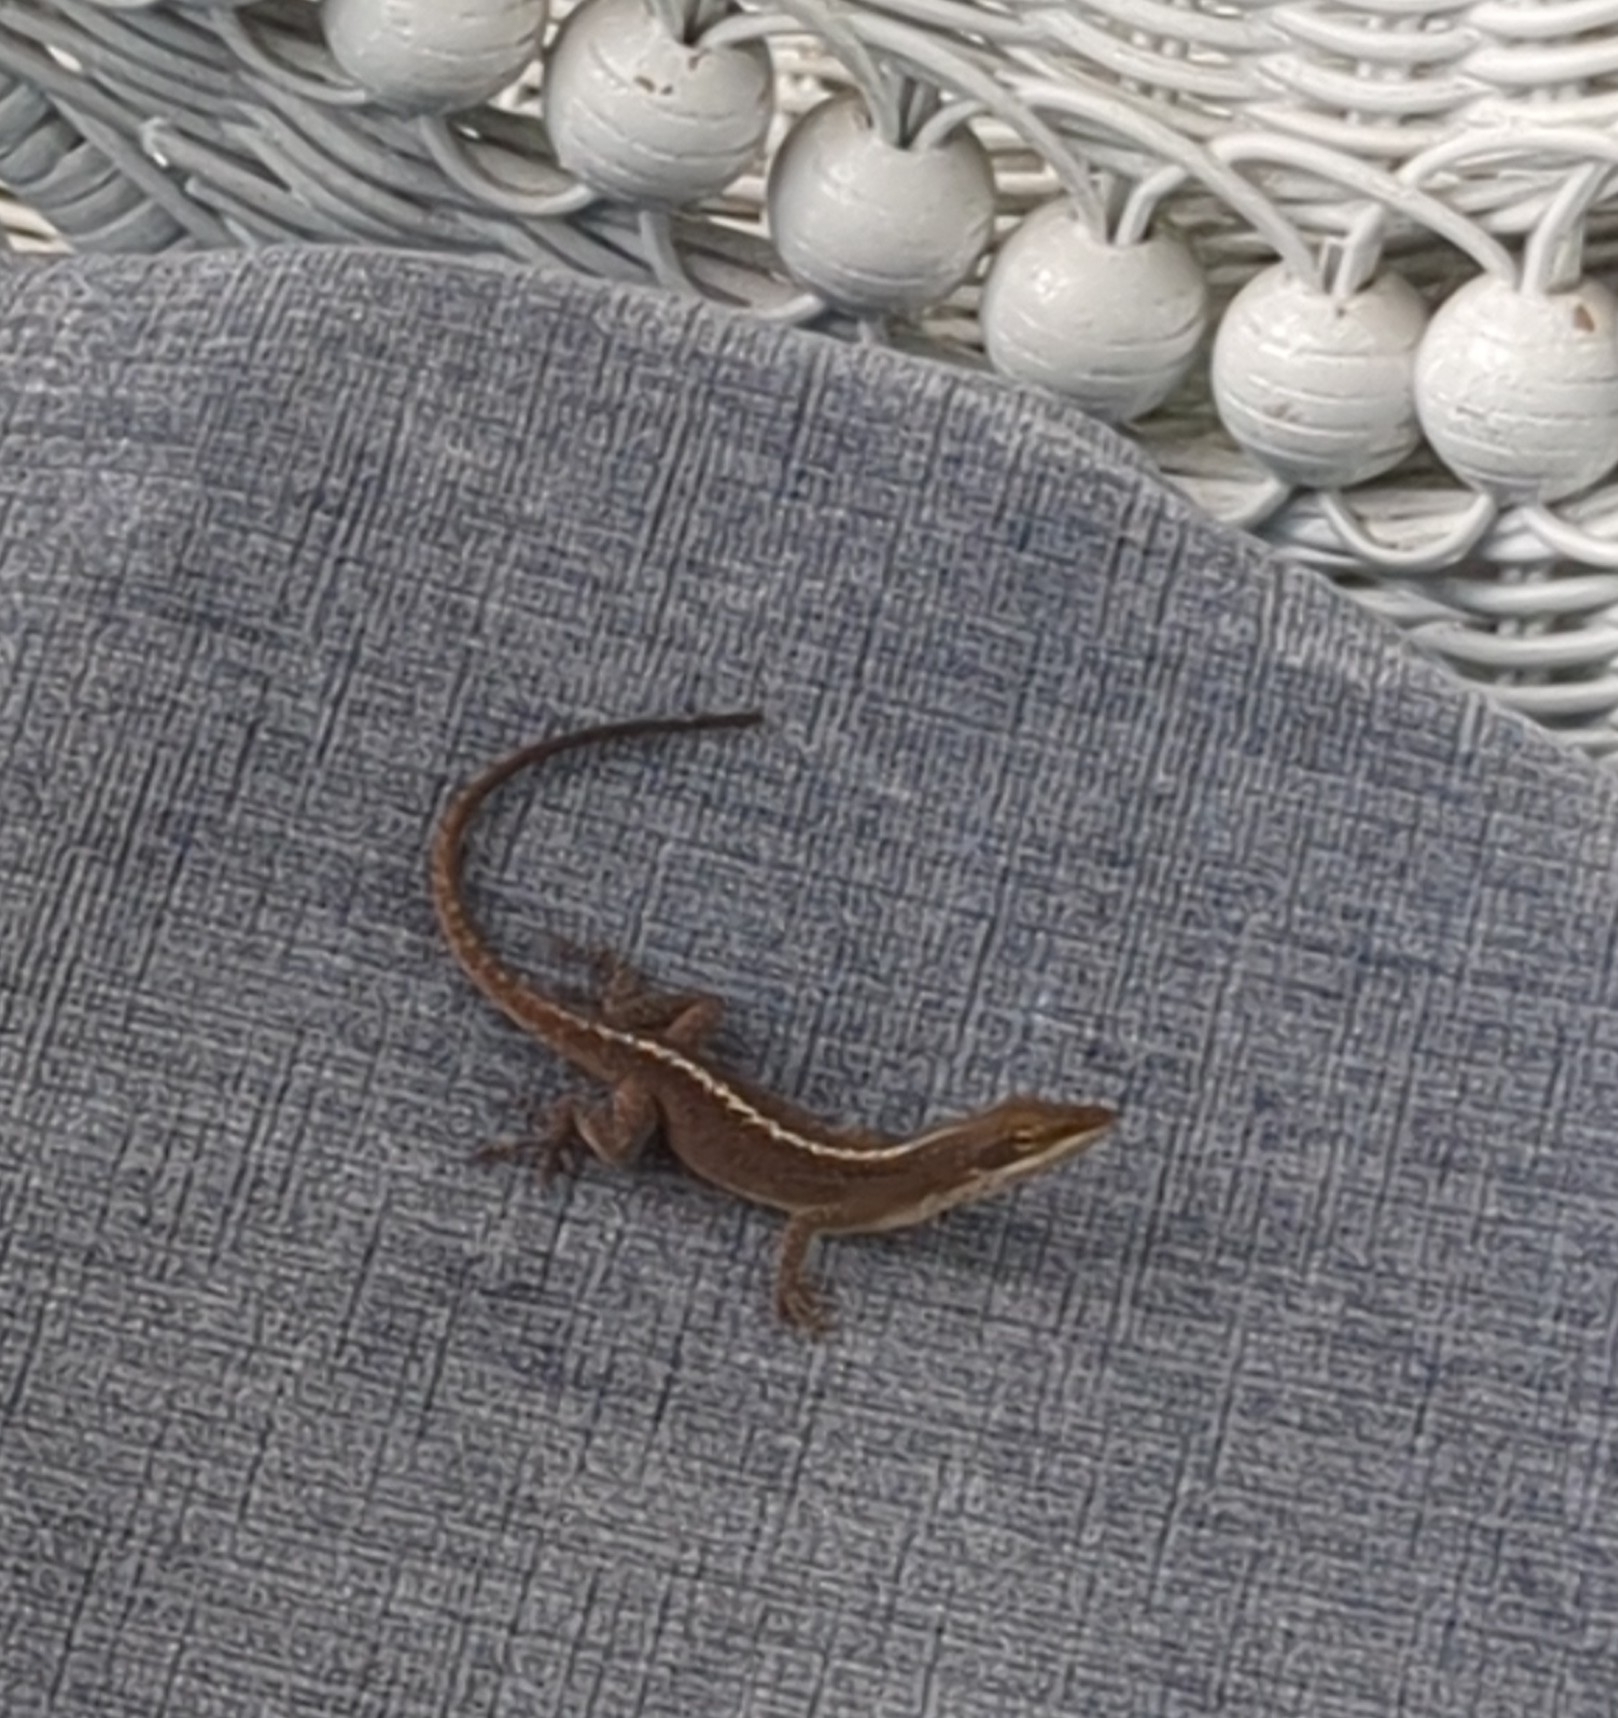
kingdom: Animalia
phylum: Chordata
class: Squamata
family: Dactyloidae
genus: Anolis
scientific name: Anolis carolinensis
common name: Green anole
